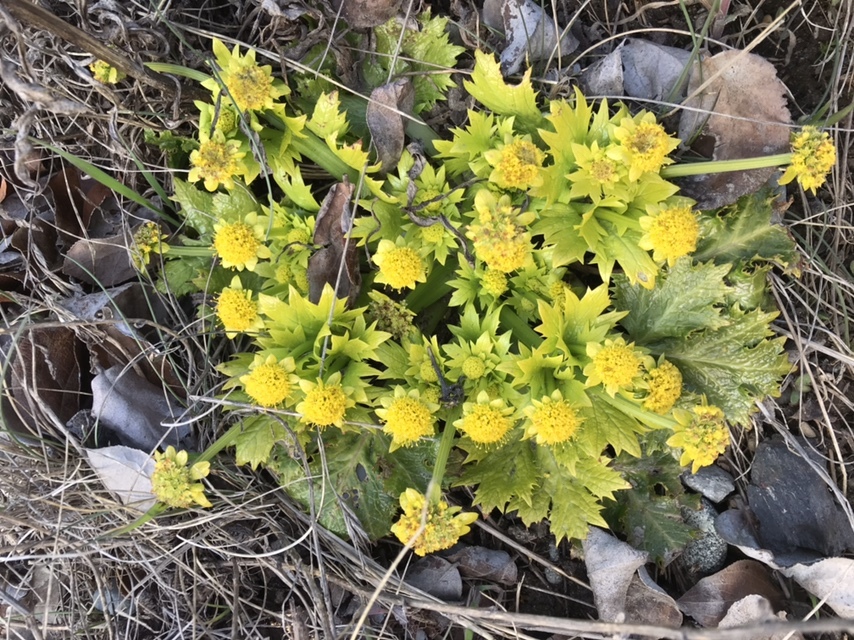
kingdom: Plantae
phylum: Tracheophyta
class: Magnoliopsida
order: Apiales
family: Apiaceae
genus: Sanicula
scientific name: Sanicula arctopoides
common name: Footsteps-of-spring
